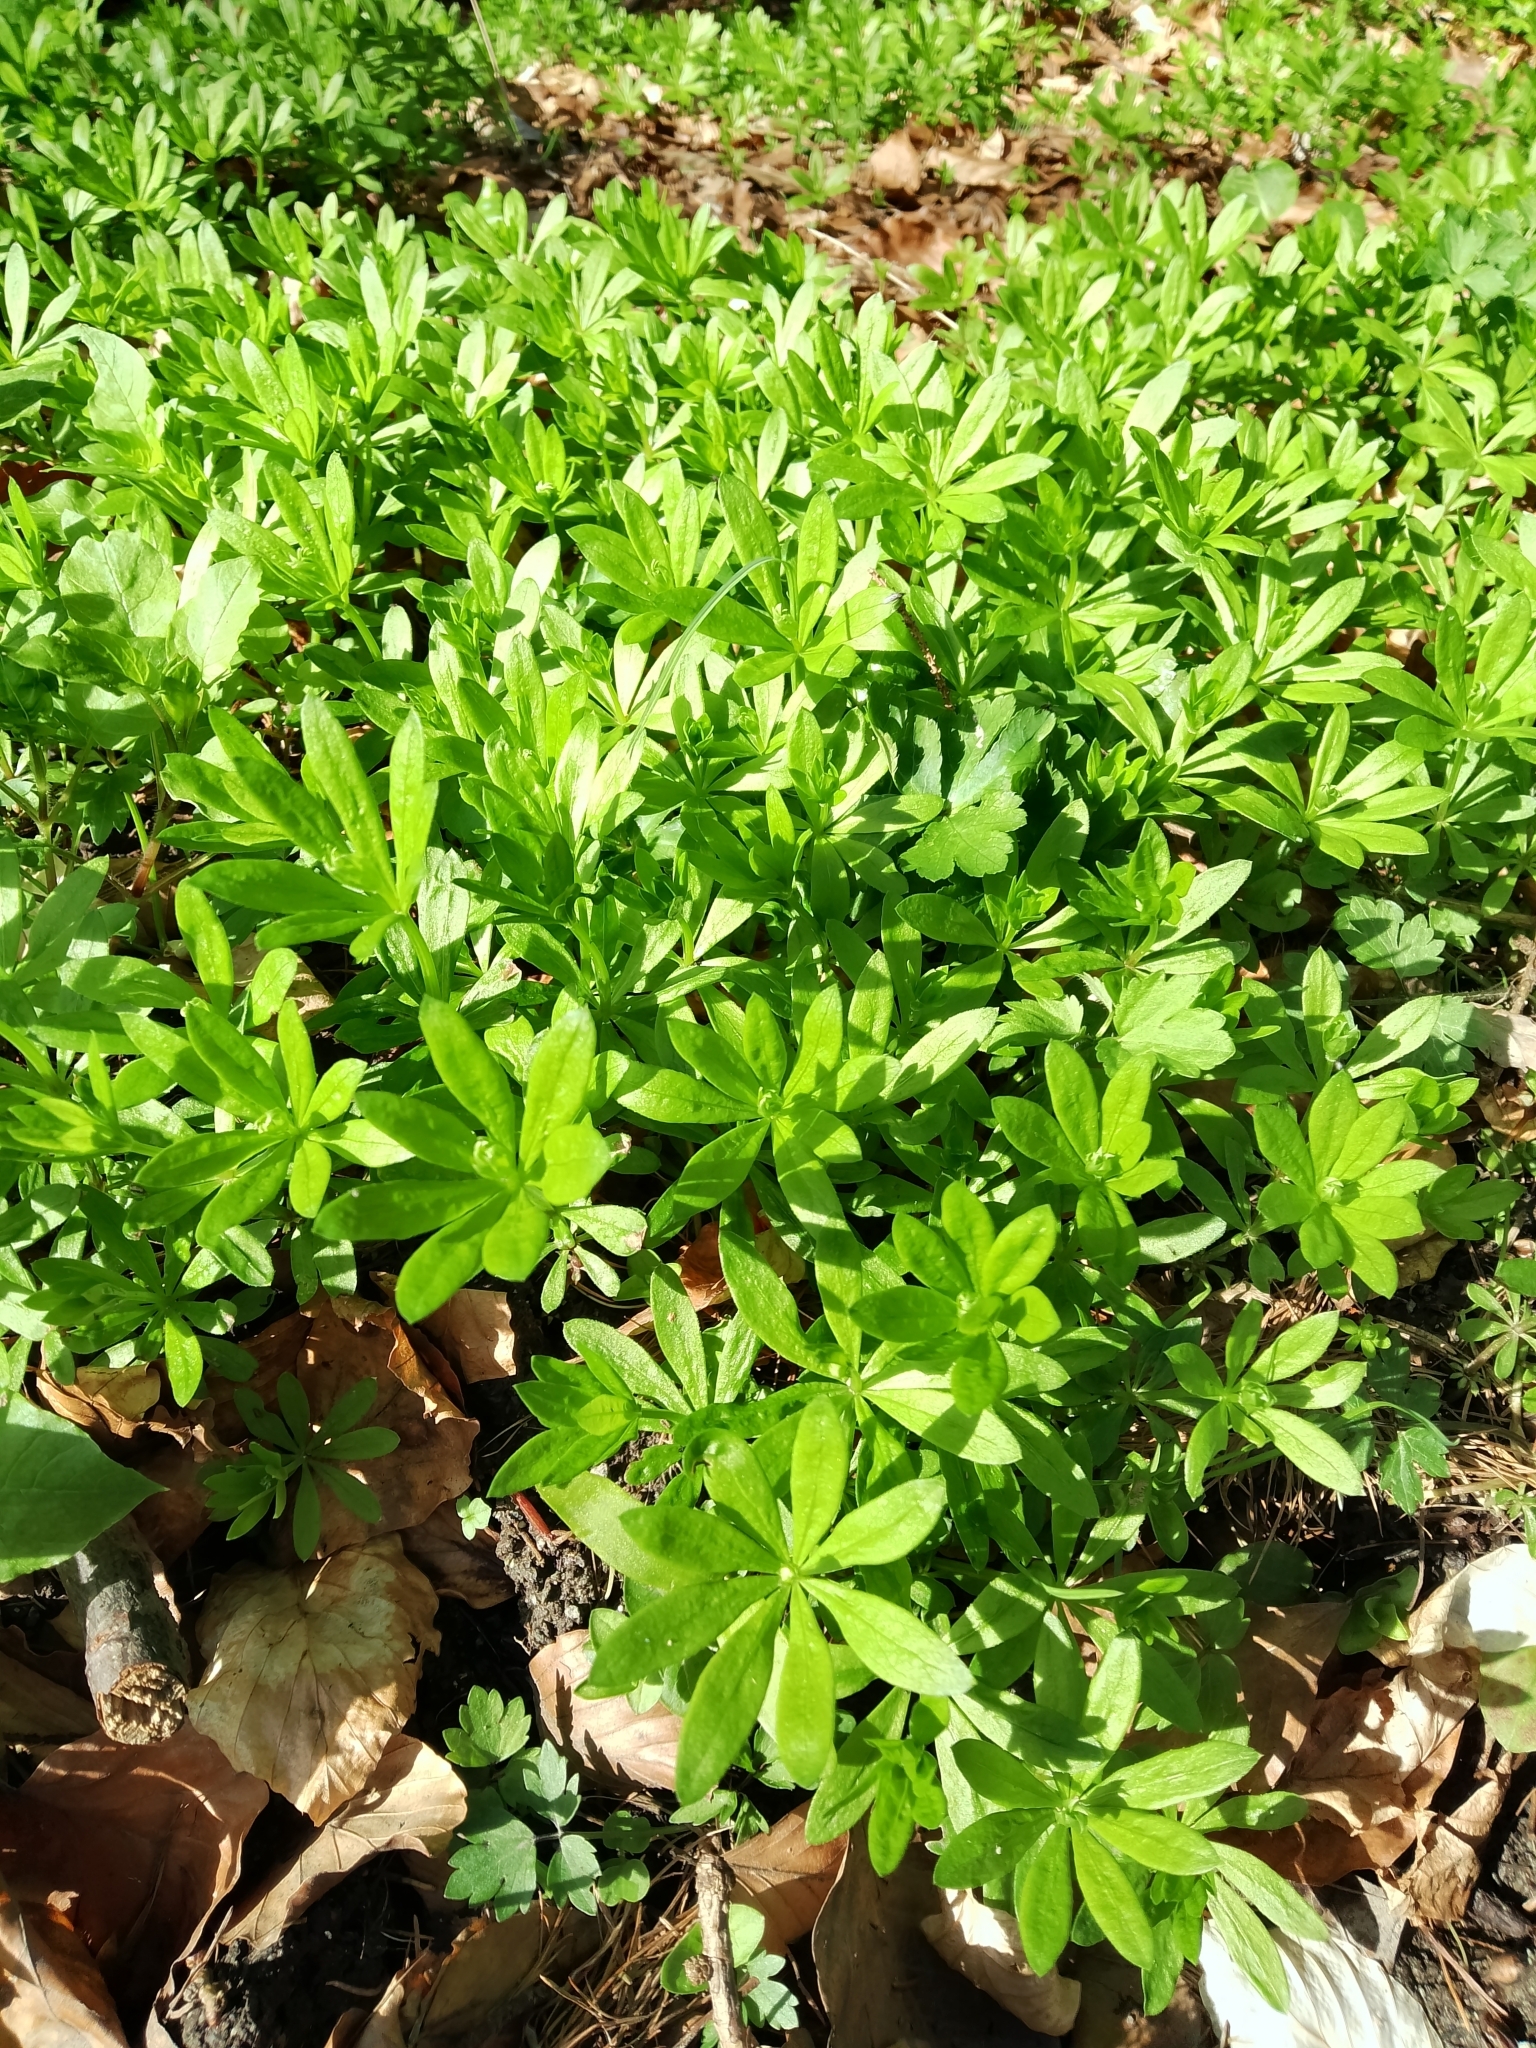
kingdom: Plantae
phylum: Tracheophyta
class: Magnoliopsida
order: Gentianales
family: Rubiaceae
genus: Galium
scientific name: Galium odoratum
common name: Sweet woodruff
